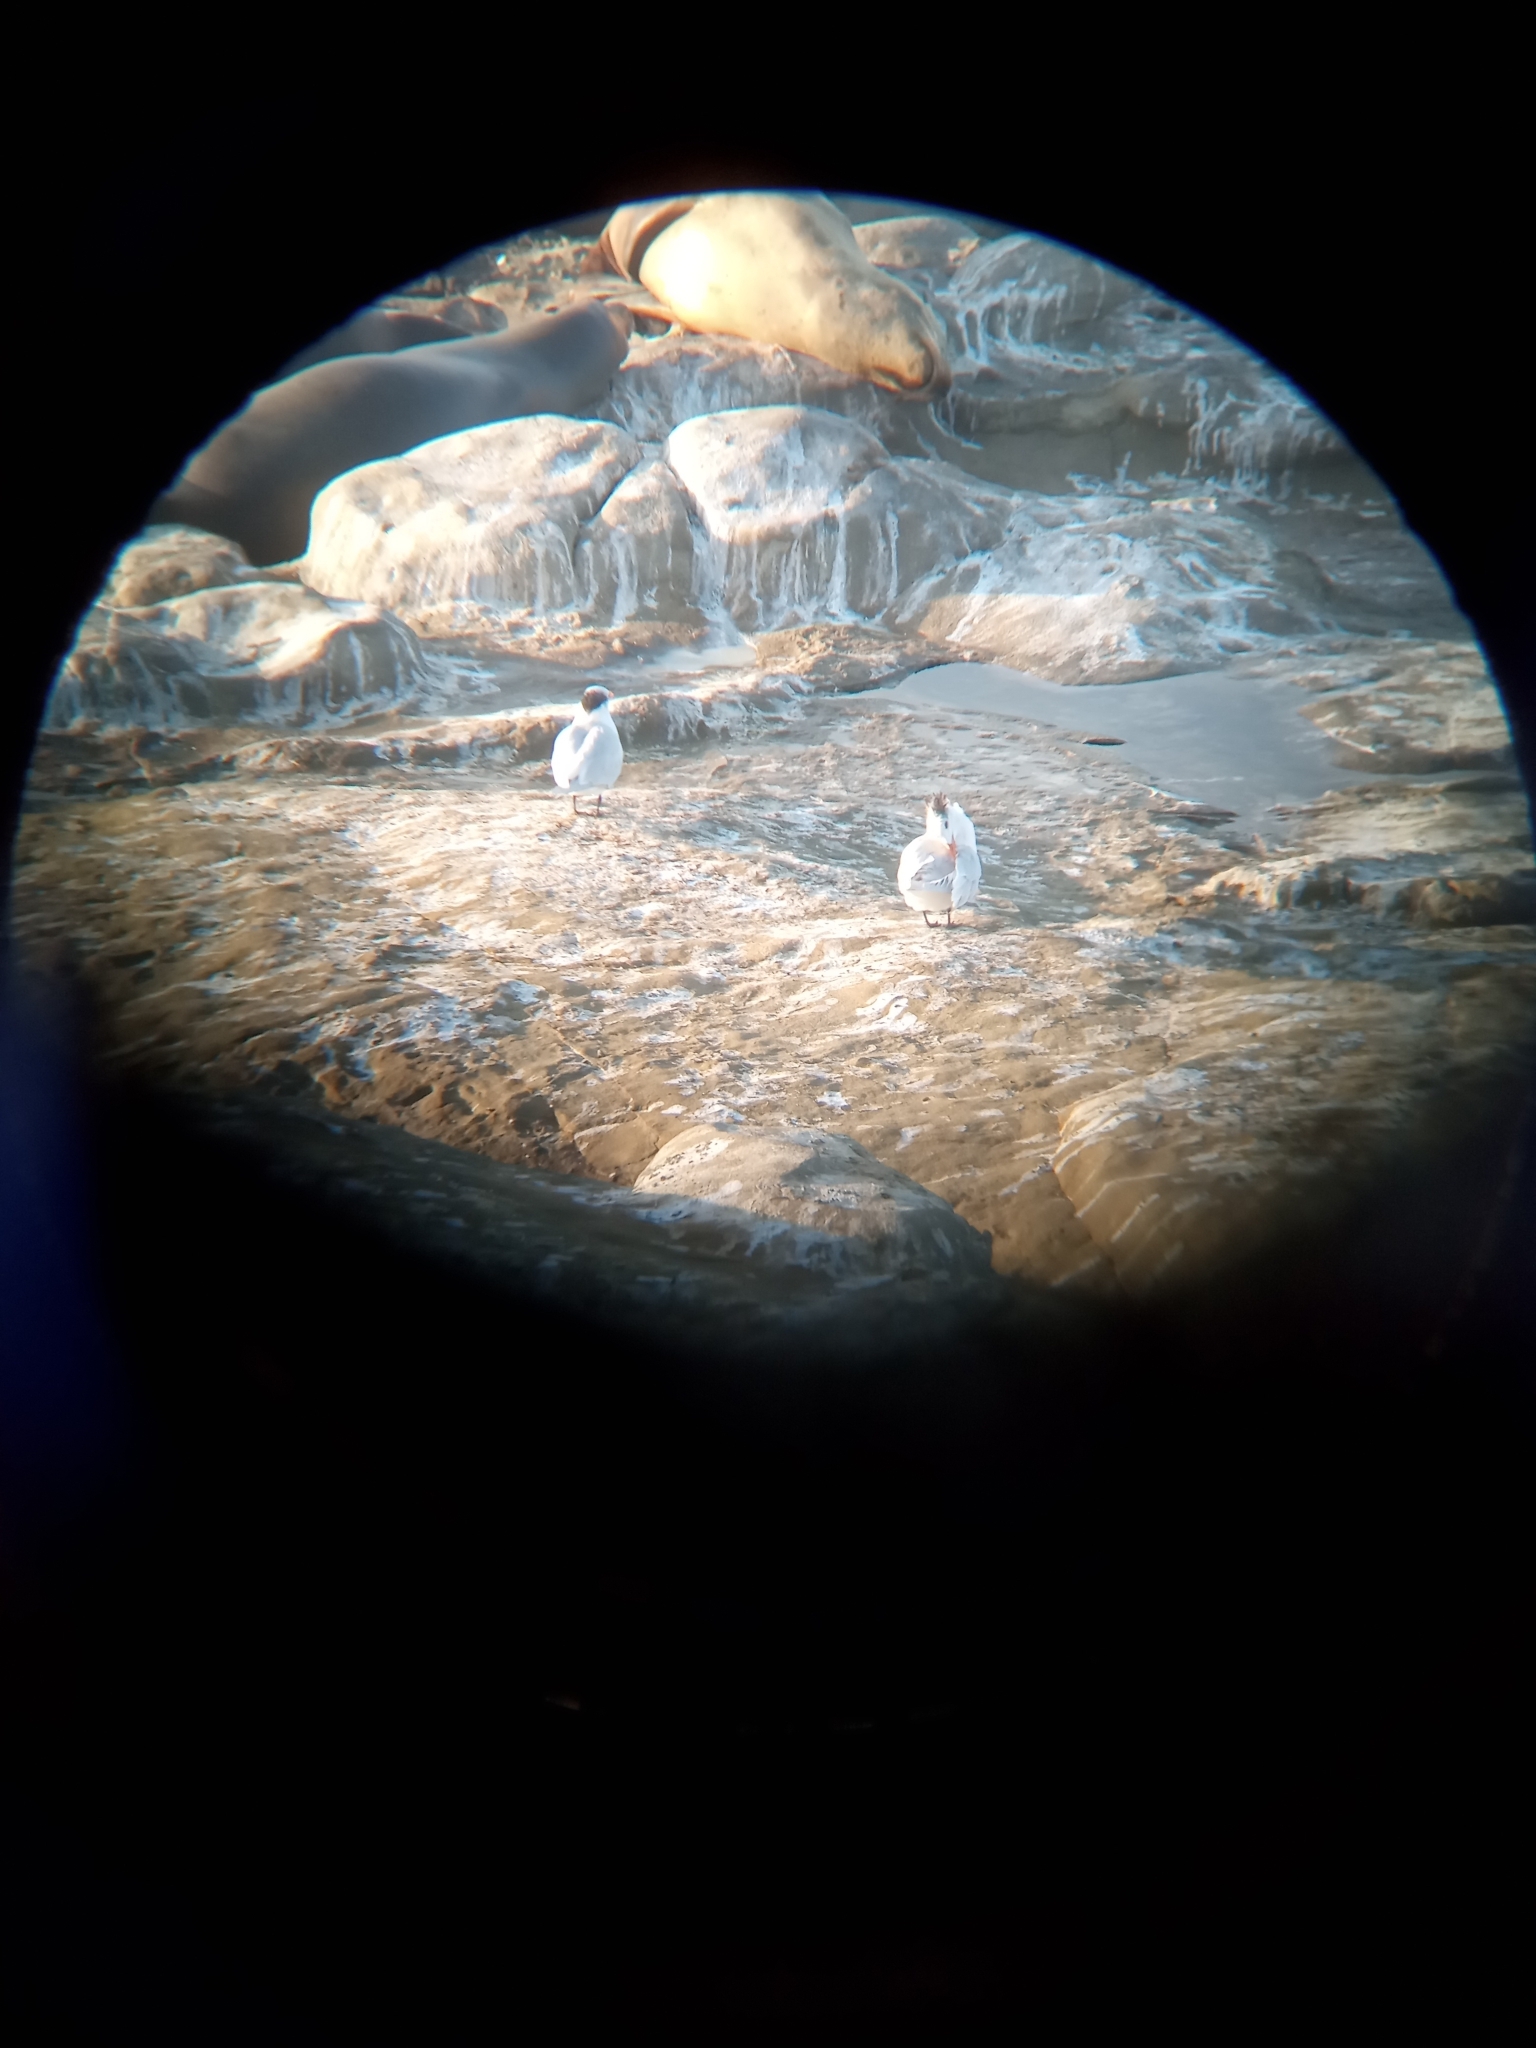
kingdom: Animalia
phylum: Chordata
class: Aves
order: Charadriiformes
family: Laridae
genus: Thalasseus
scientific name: Thalasseus maximus
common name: Royal tern
